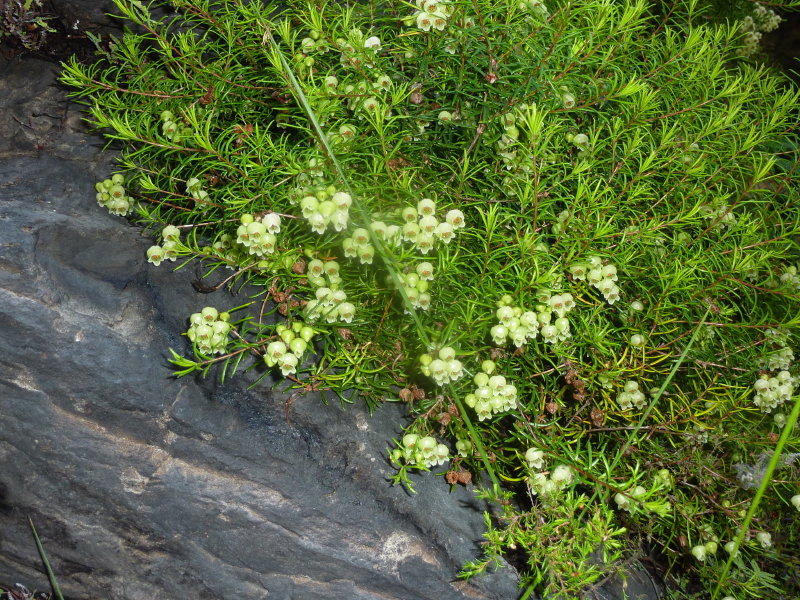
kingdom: Plantae
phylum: Tracheophyta
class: Magnoliopsida
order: Ericales
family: Ericaceae
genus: Erica
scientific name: Erica ixanthera
